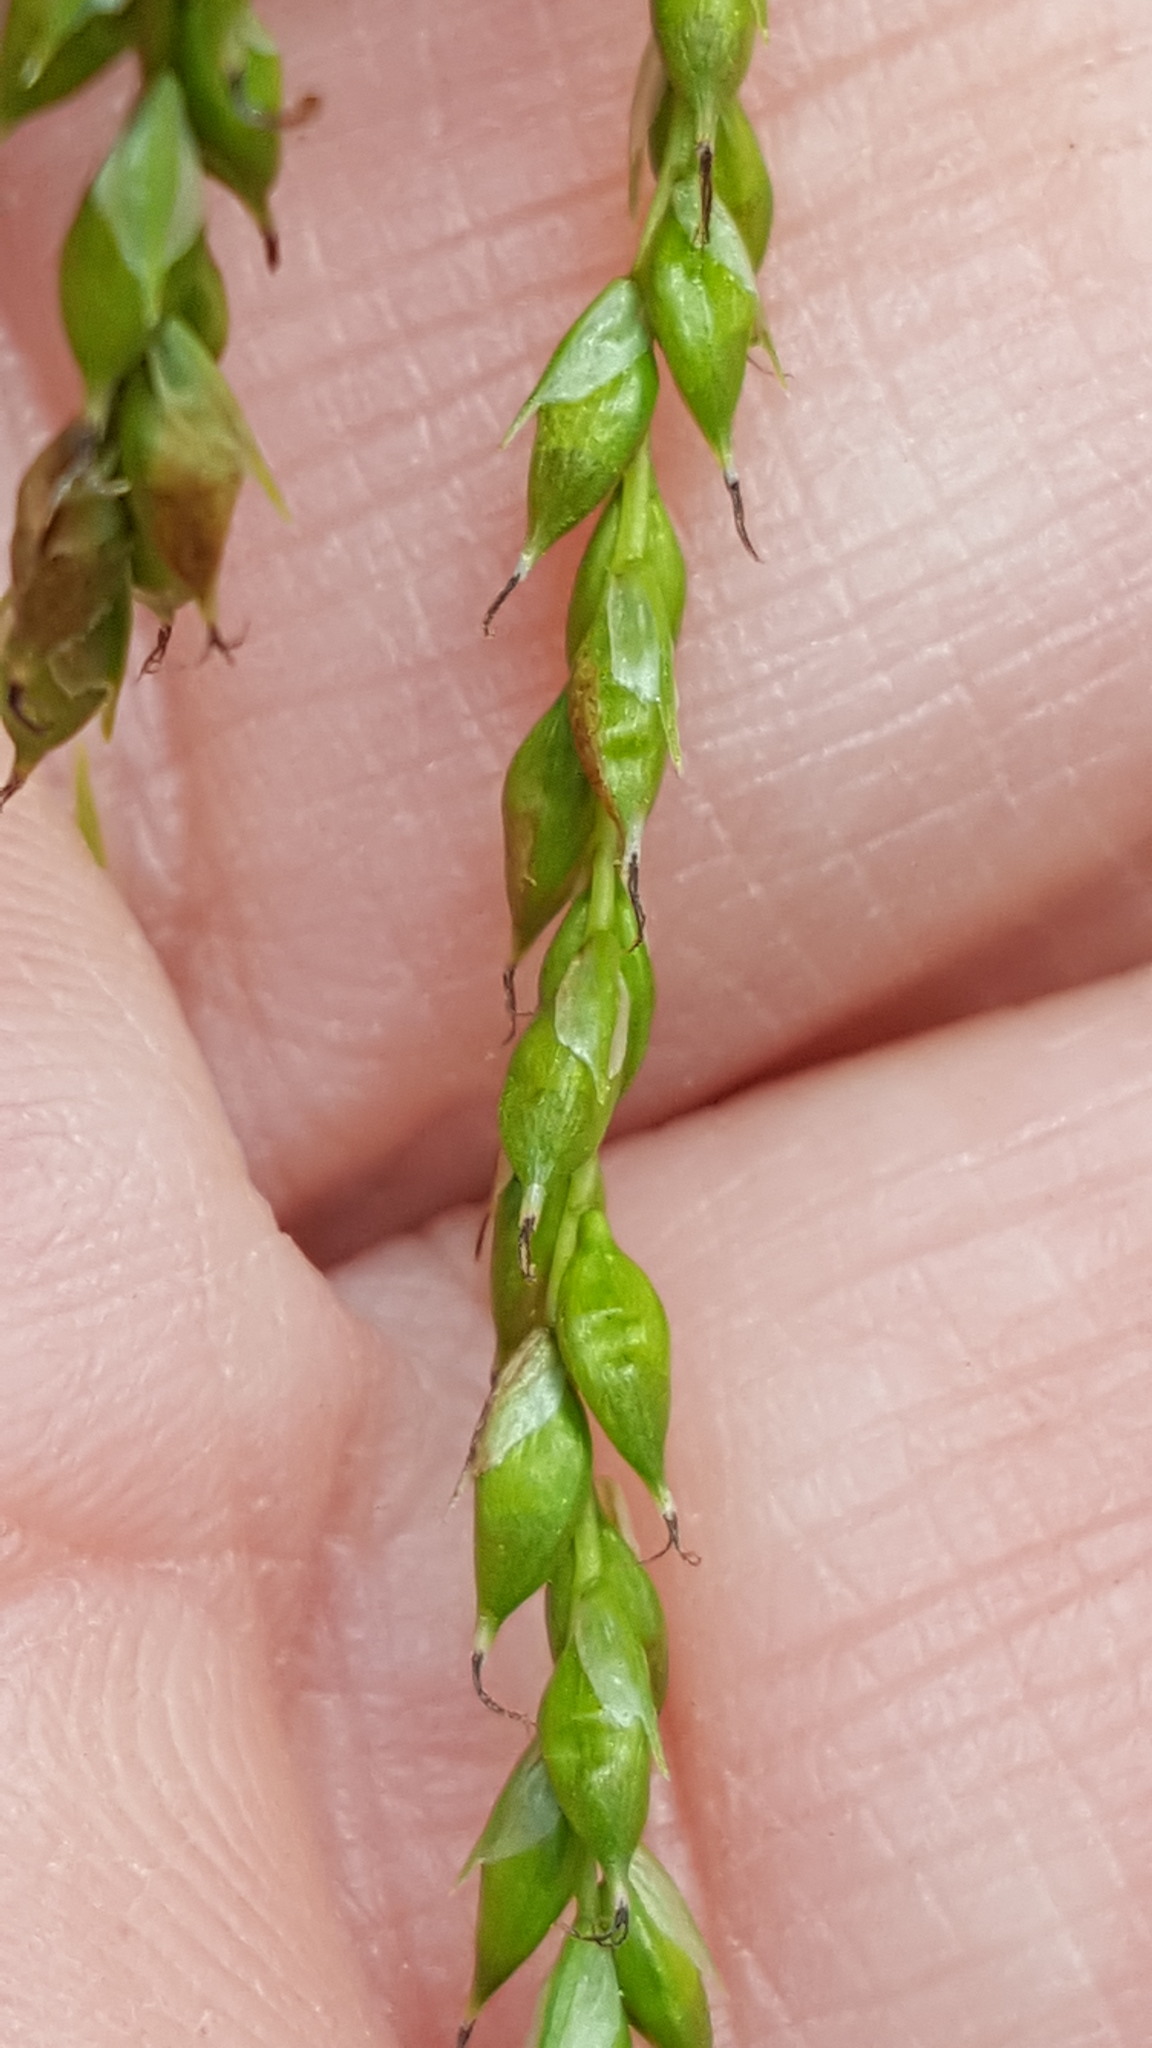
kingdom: Plantae
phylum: Tracheophyta
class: Liliopsida
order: Poales
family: Cyperaceae
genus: Carex
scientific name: Carex arctata
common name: Black sedge
